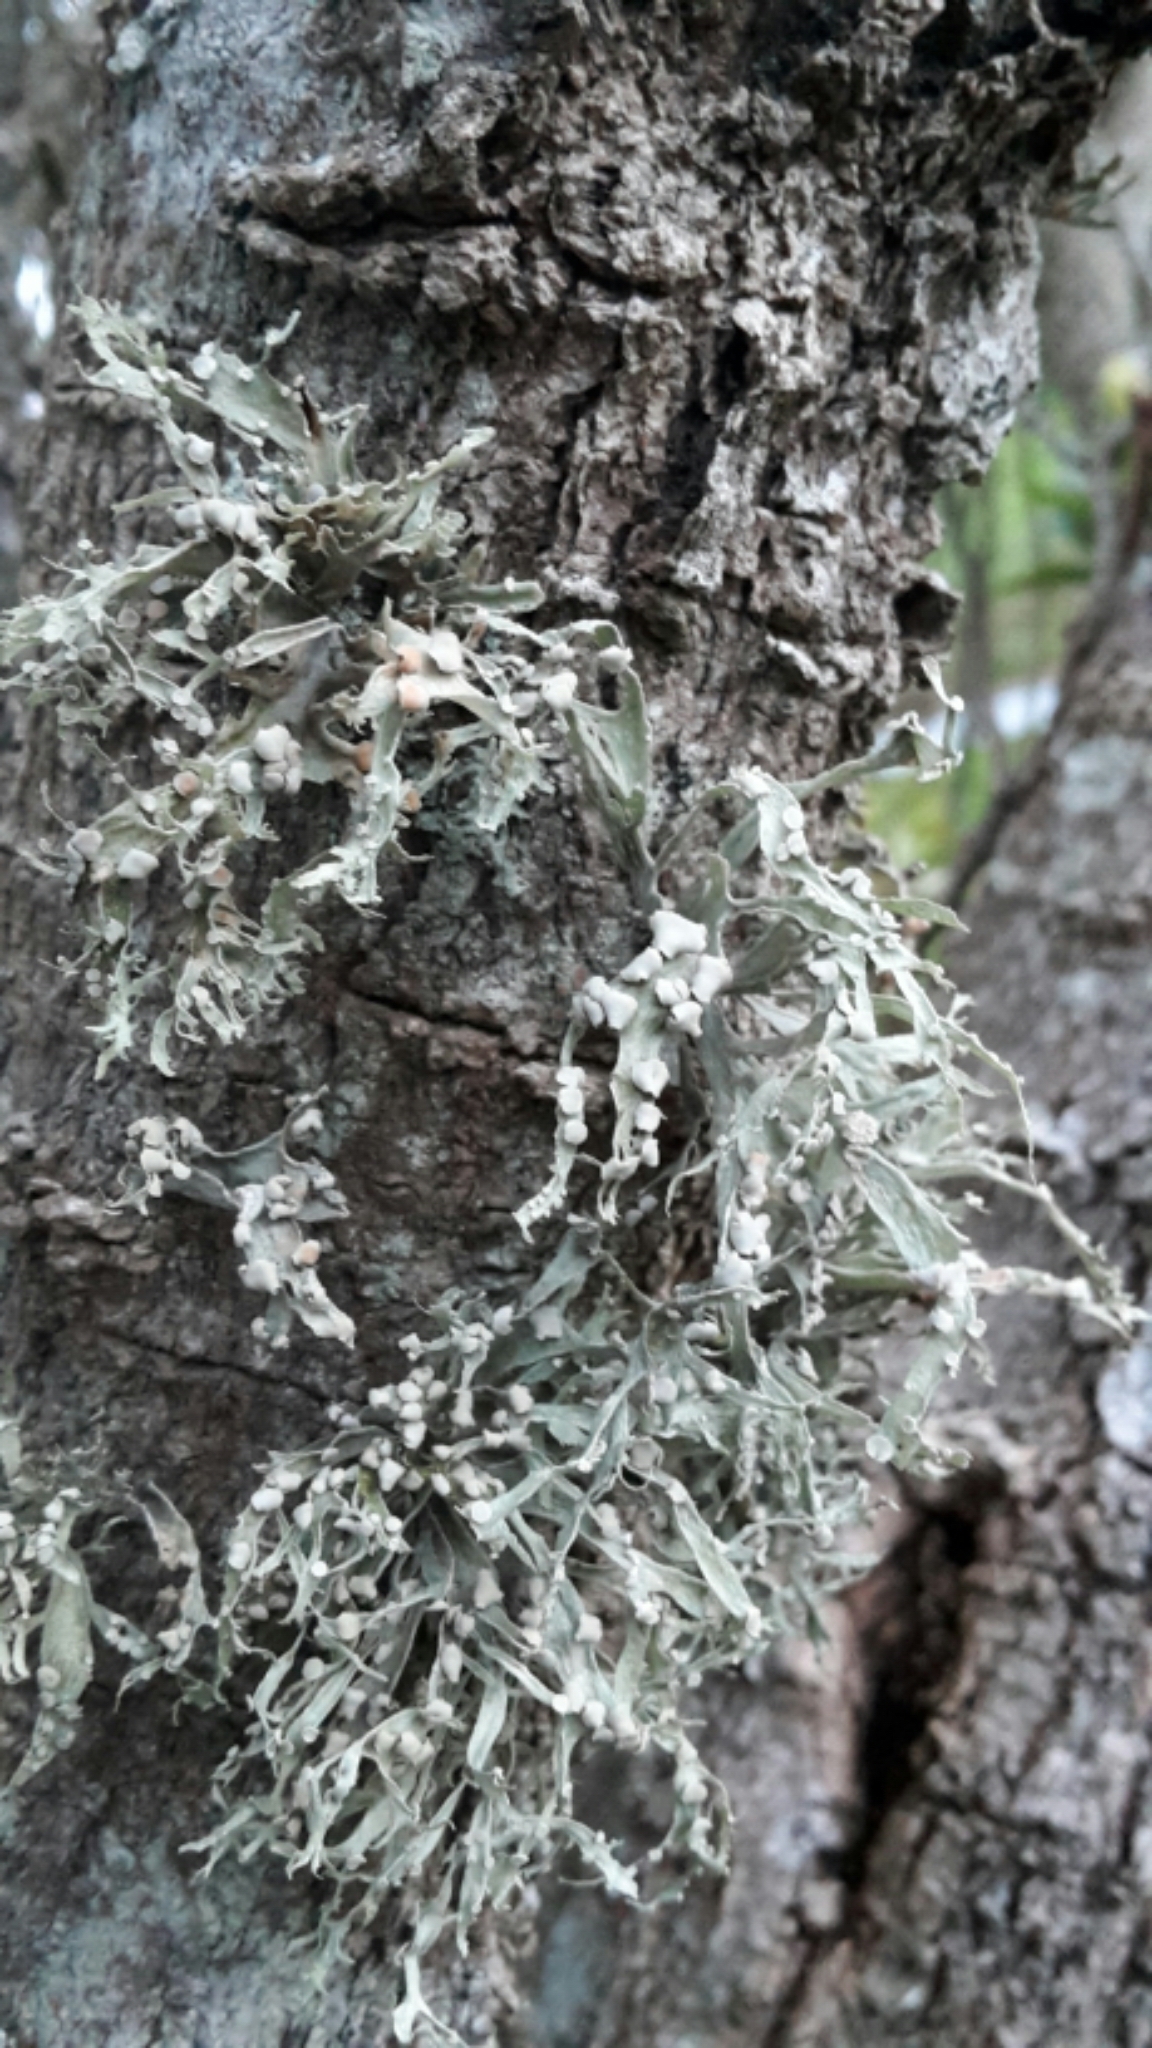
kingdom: Fungi
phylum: Ascomycota
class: Lecanoromycetes
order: Lecanorales
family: Ramalinaceae
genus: Ramalina
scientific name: Ramalina celastri
